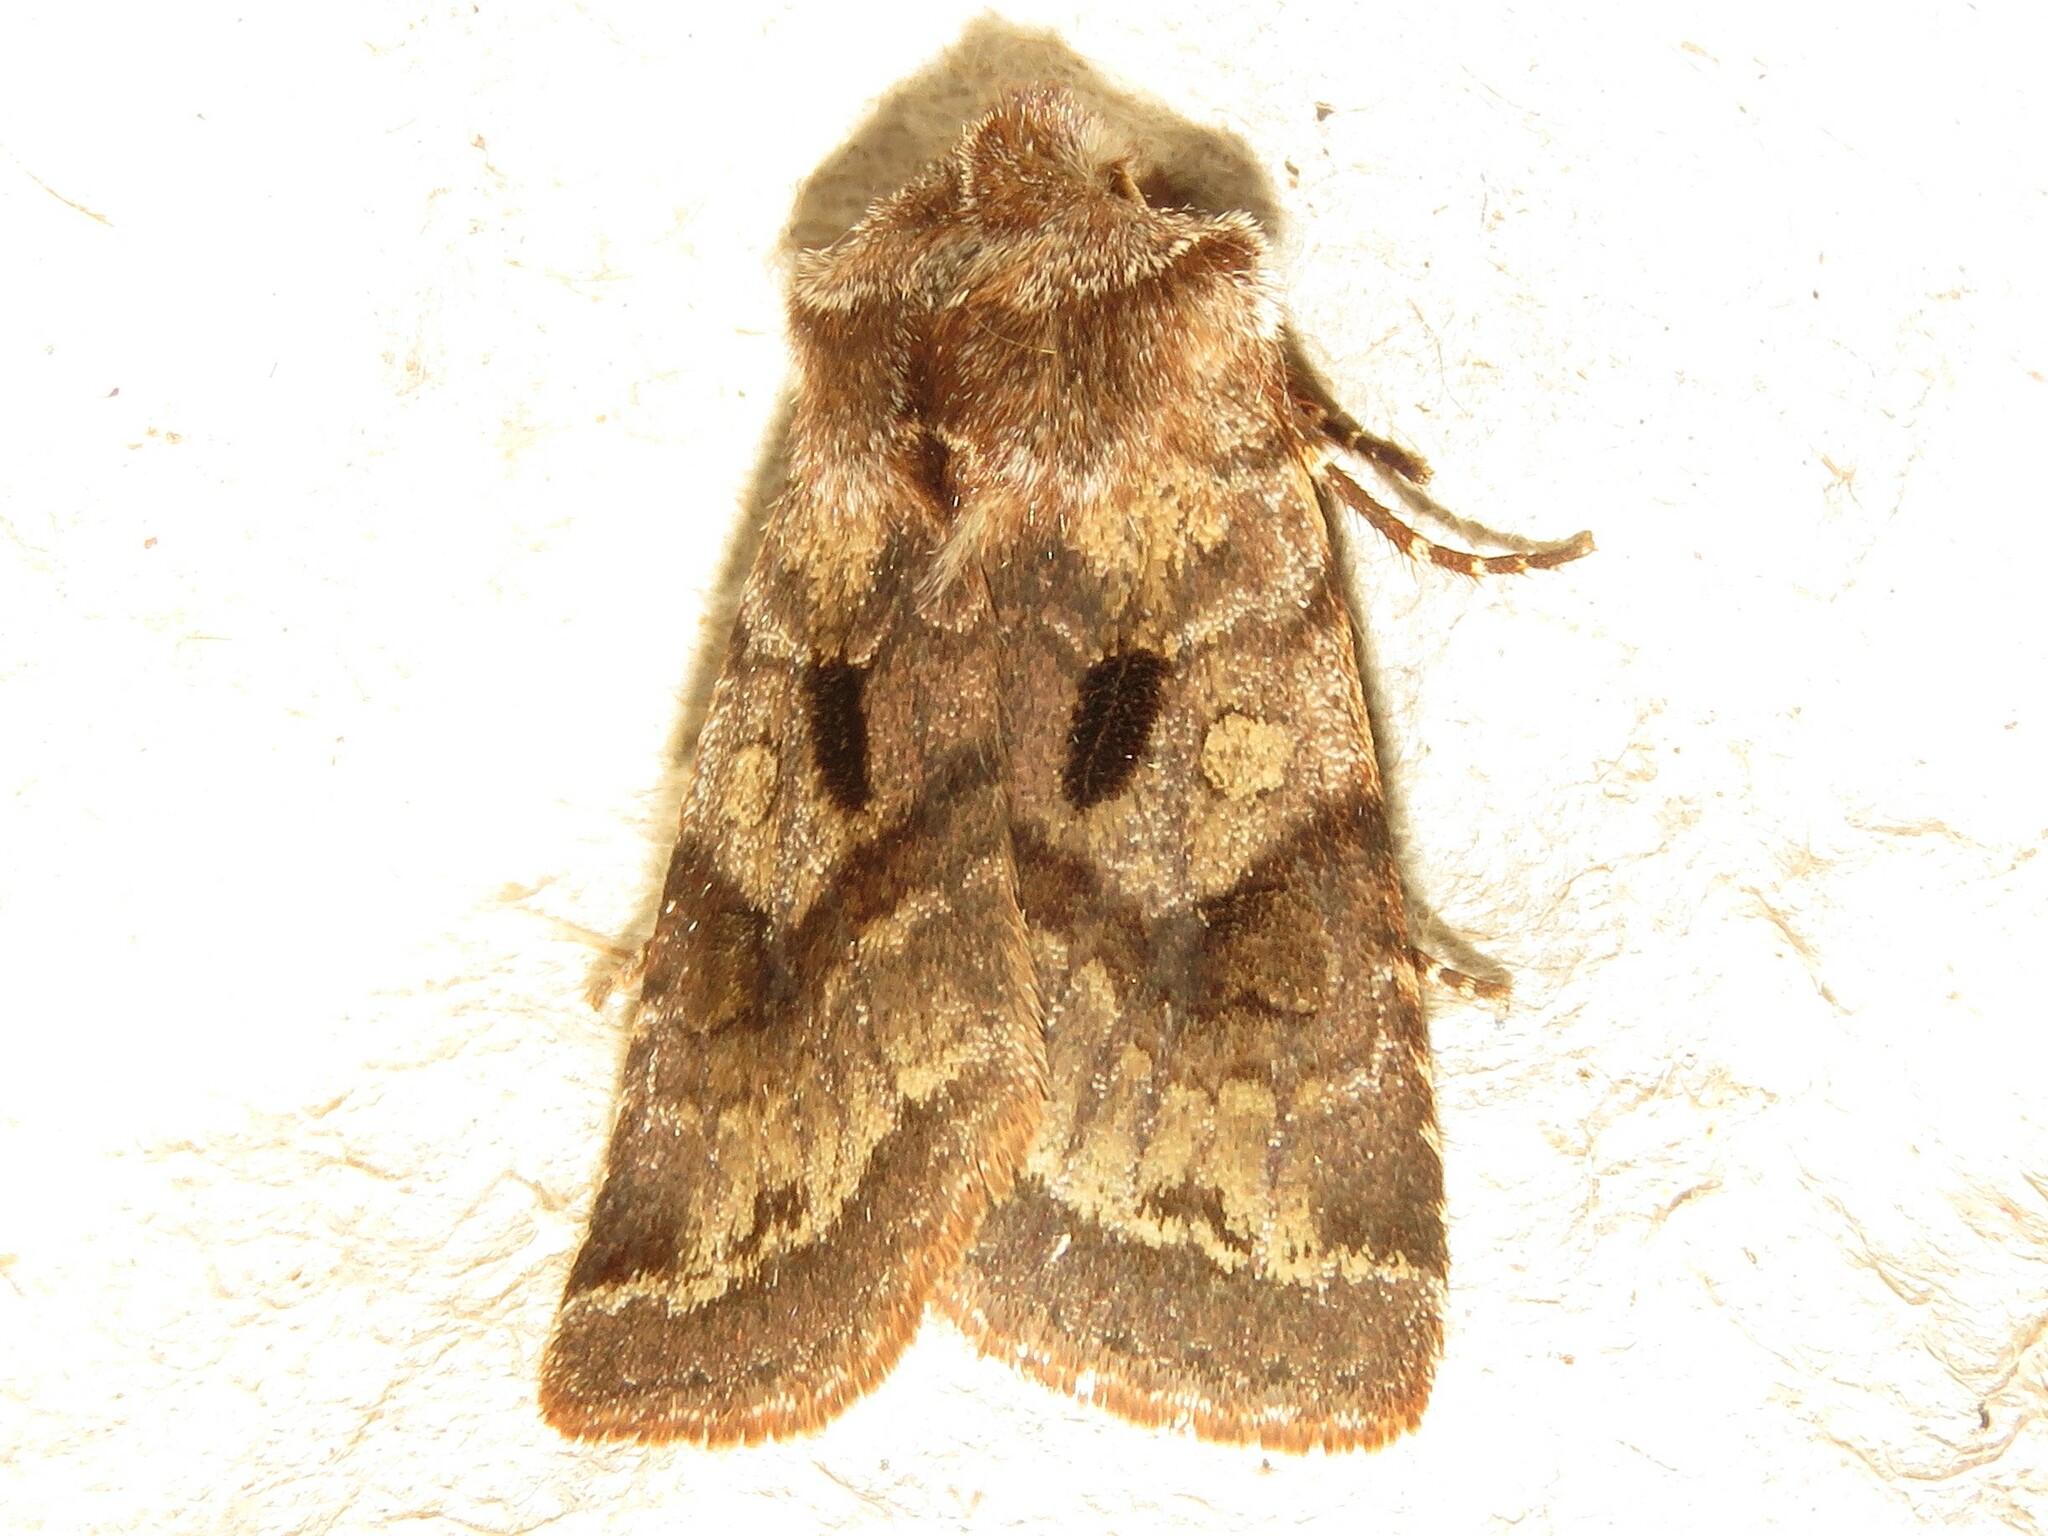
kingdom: Animalia
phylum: Arthropoda
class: Insecta
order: Lepidoptera
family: Noctuidae
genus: Cerastis
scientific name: Cerastis salicarum
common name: Willow dart
